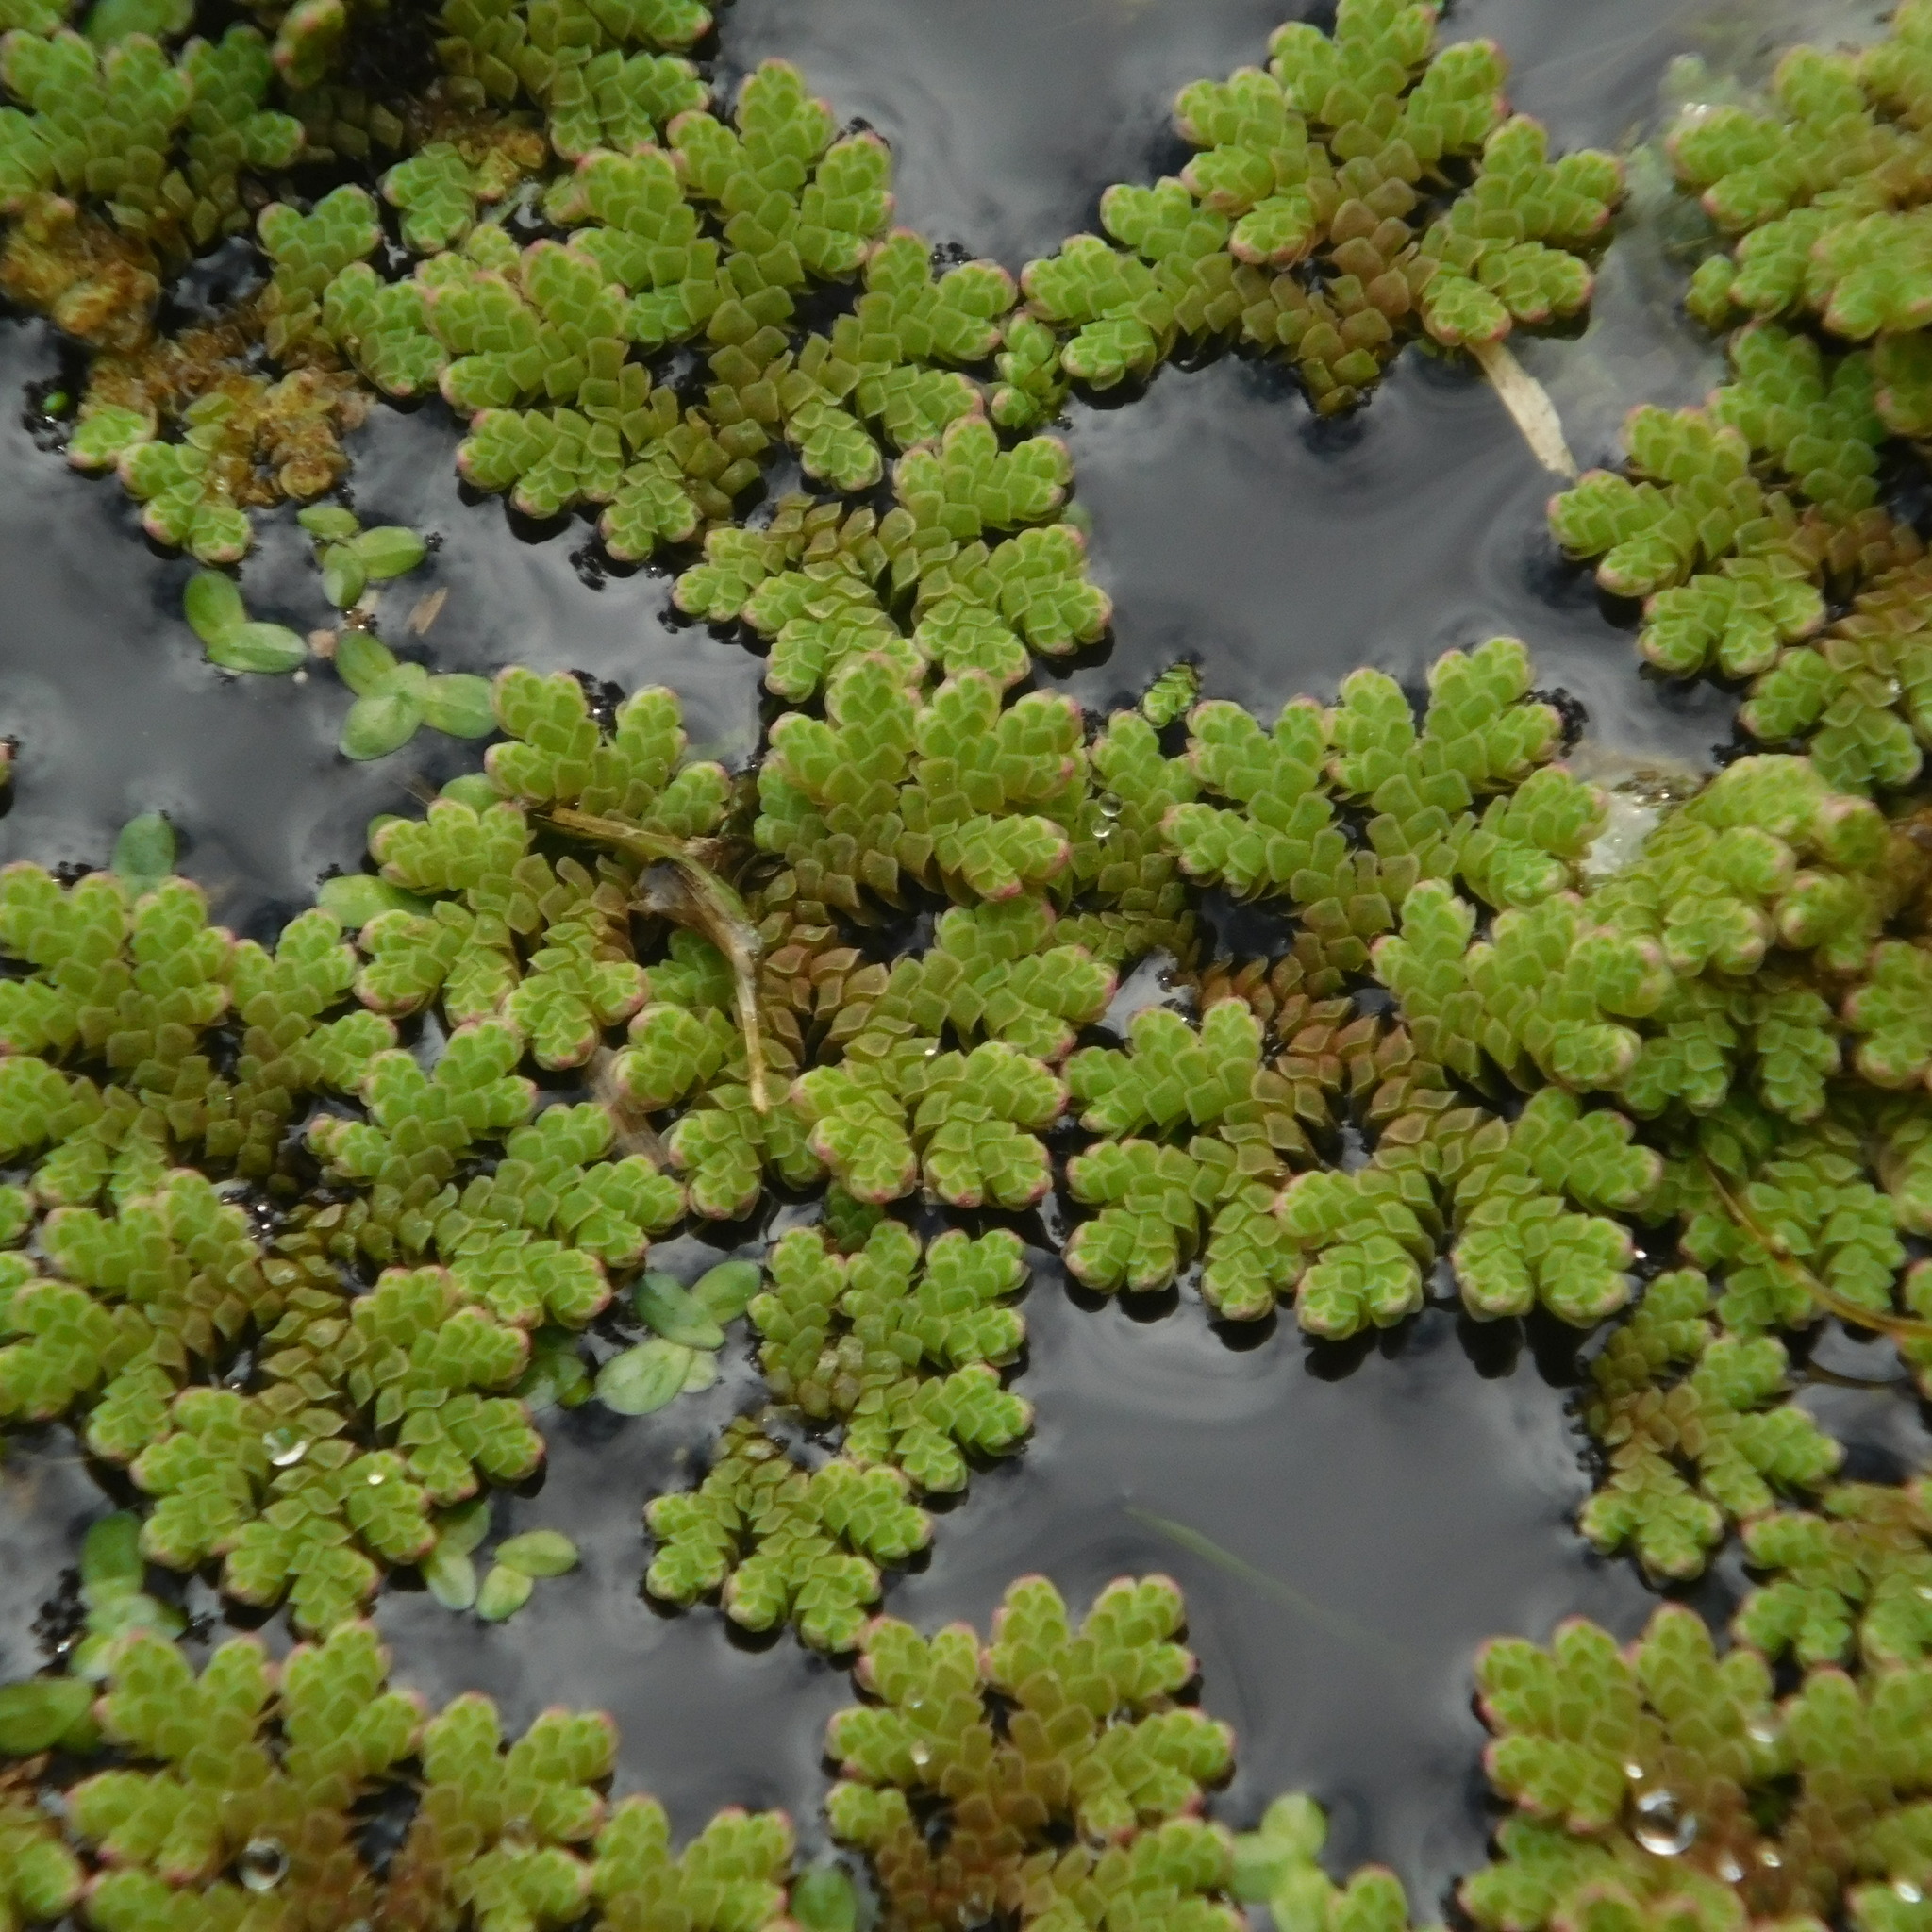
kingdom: Plantae
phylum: Tracheophyta
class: Polypodiopsida
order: Salviniales
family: Salviniaceae
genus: Azolla
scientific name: Azolla rubra
